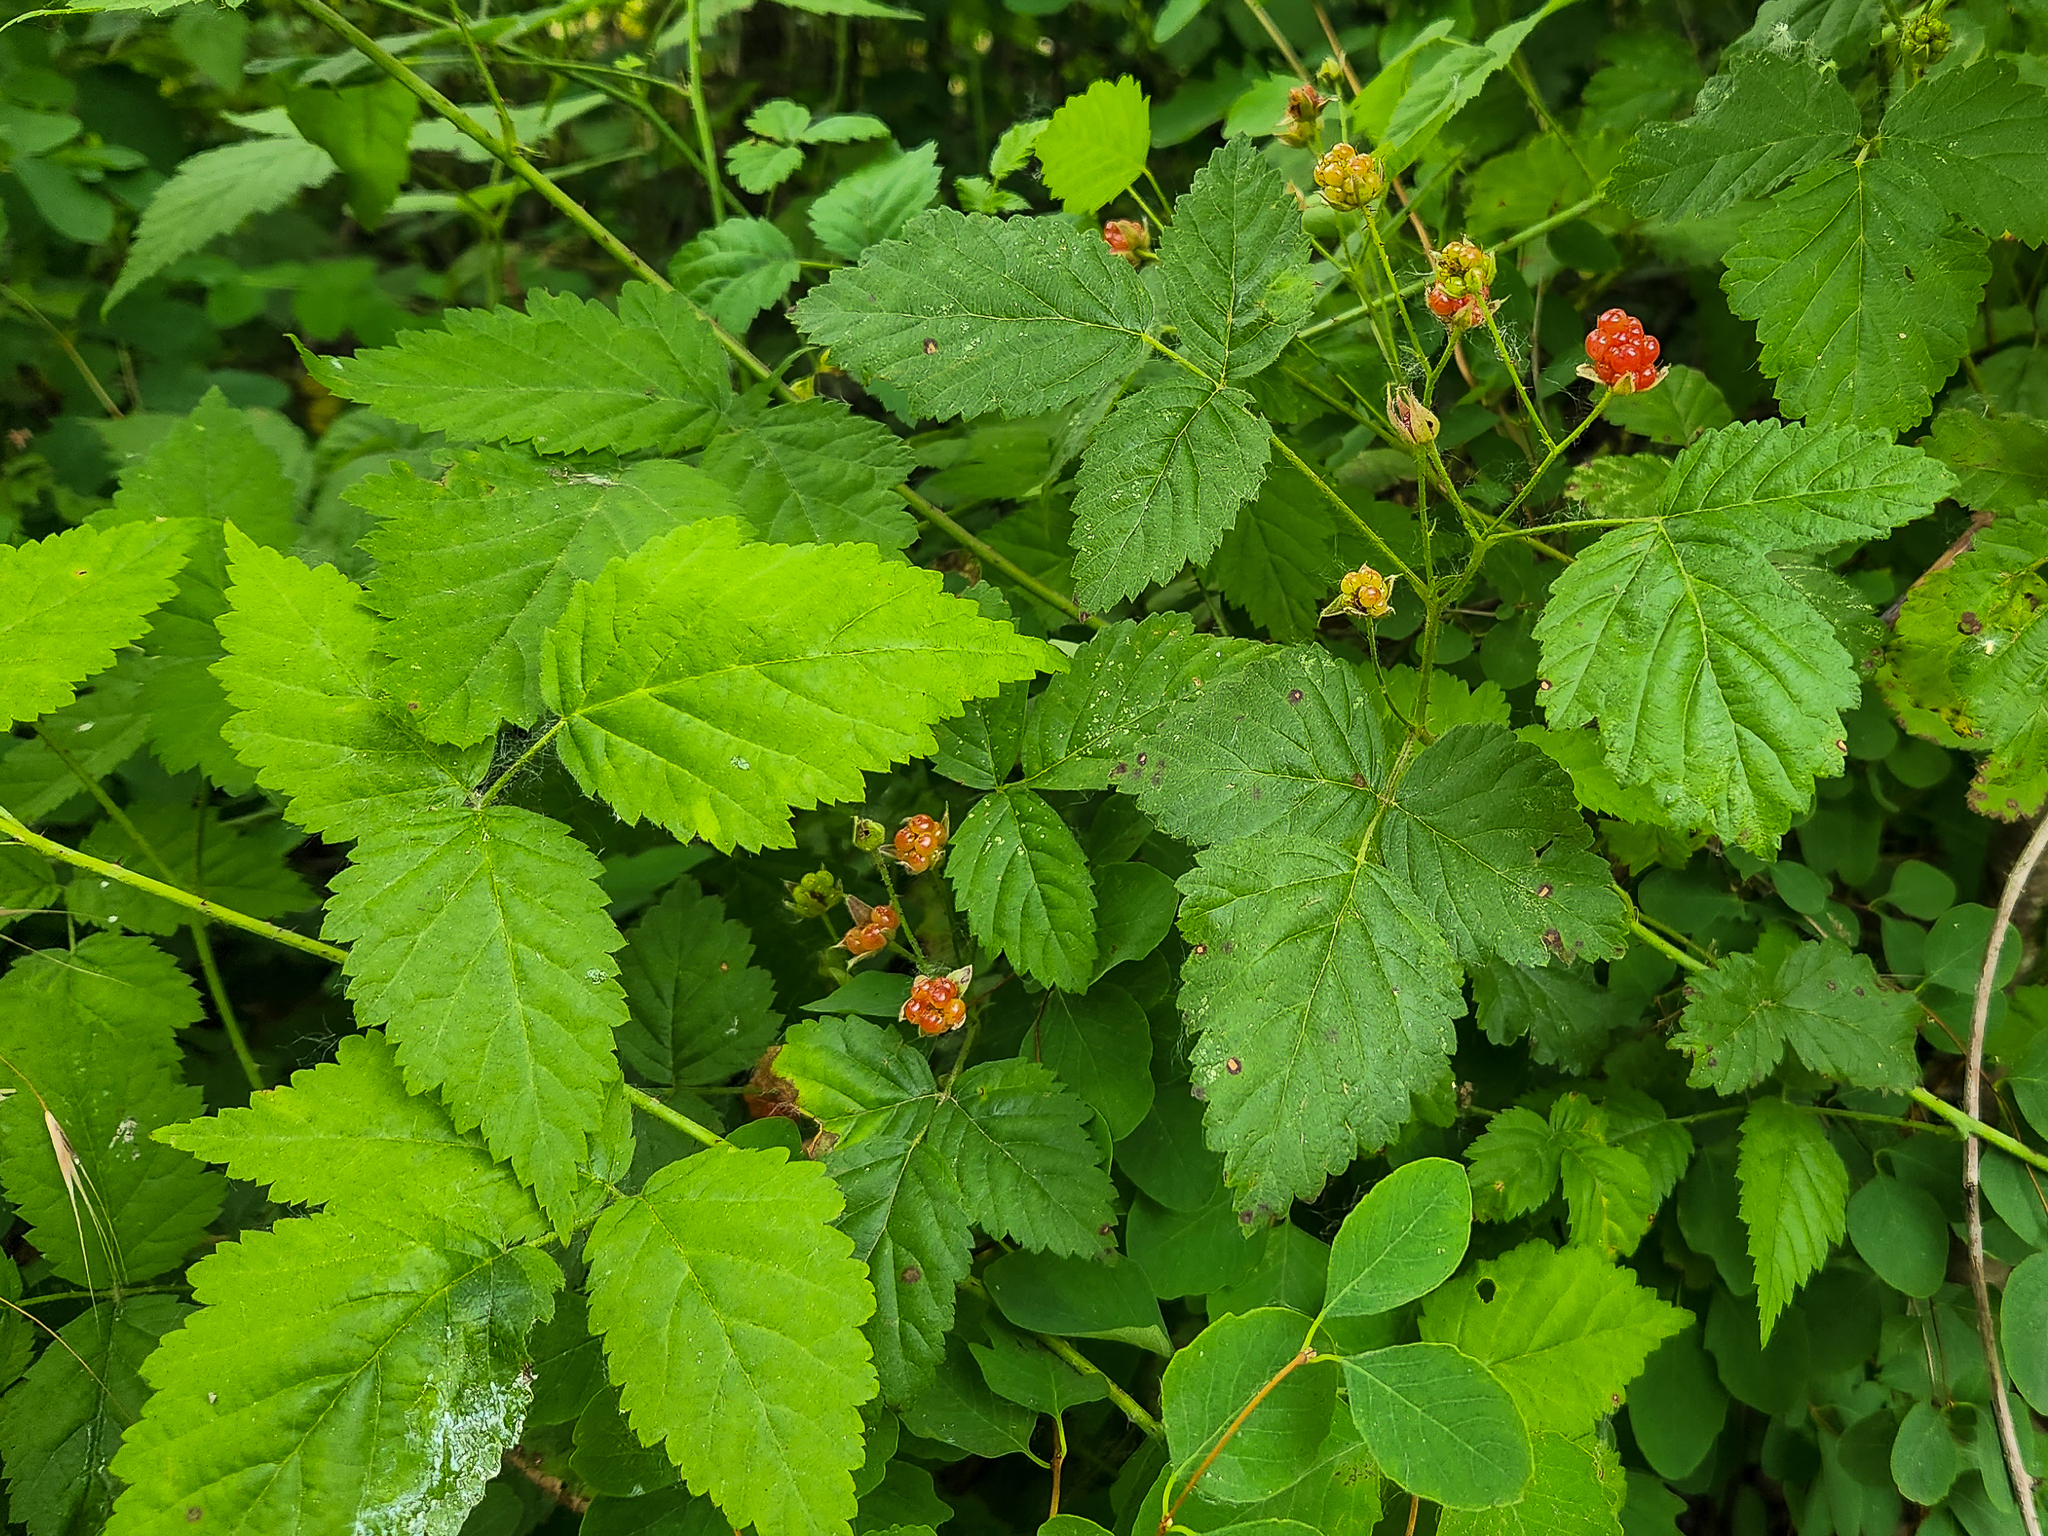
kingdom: Plantae
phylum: Tracheophyta
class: Magnoliopsida
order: Rosales
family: Rosaceae
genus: Rubus
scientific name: Rubus ursinus
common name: Pacific blackberry
